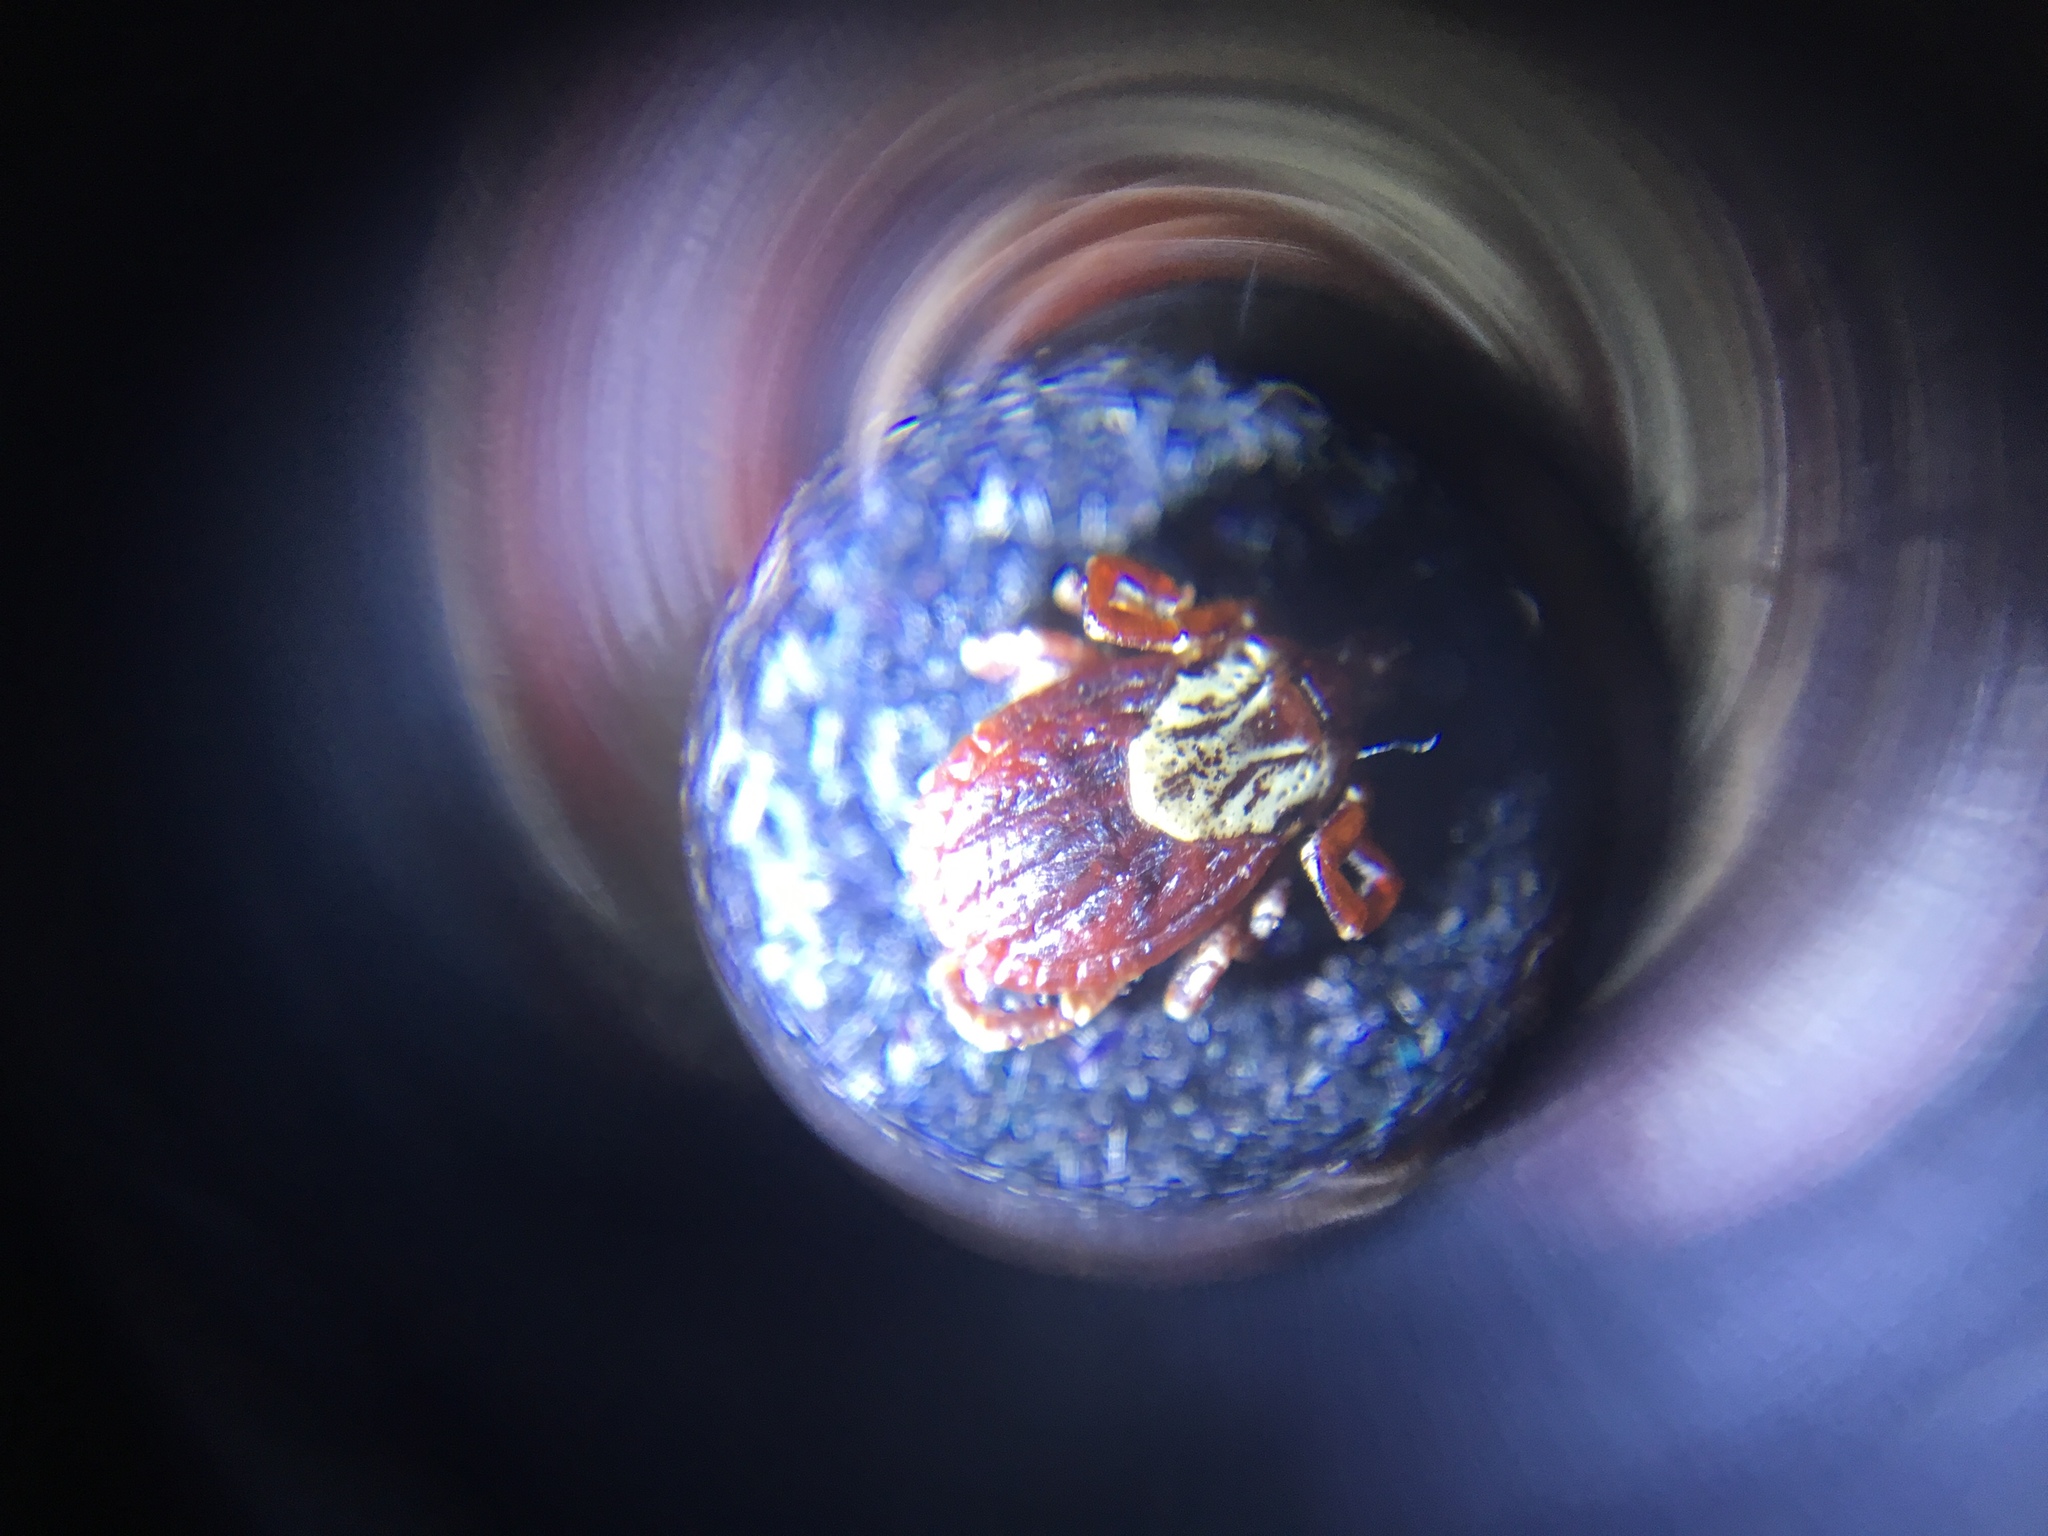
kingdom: Animalia
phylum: Arthropoda
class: Arachnida
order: Ixodida
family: Ixodidae
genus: Dermacentor
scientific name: Dermacentor variabilis
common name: American dog tick
